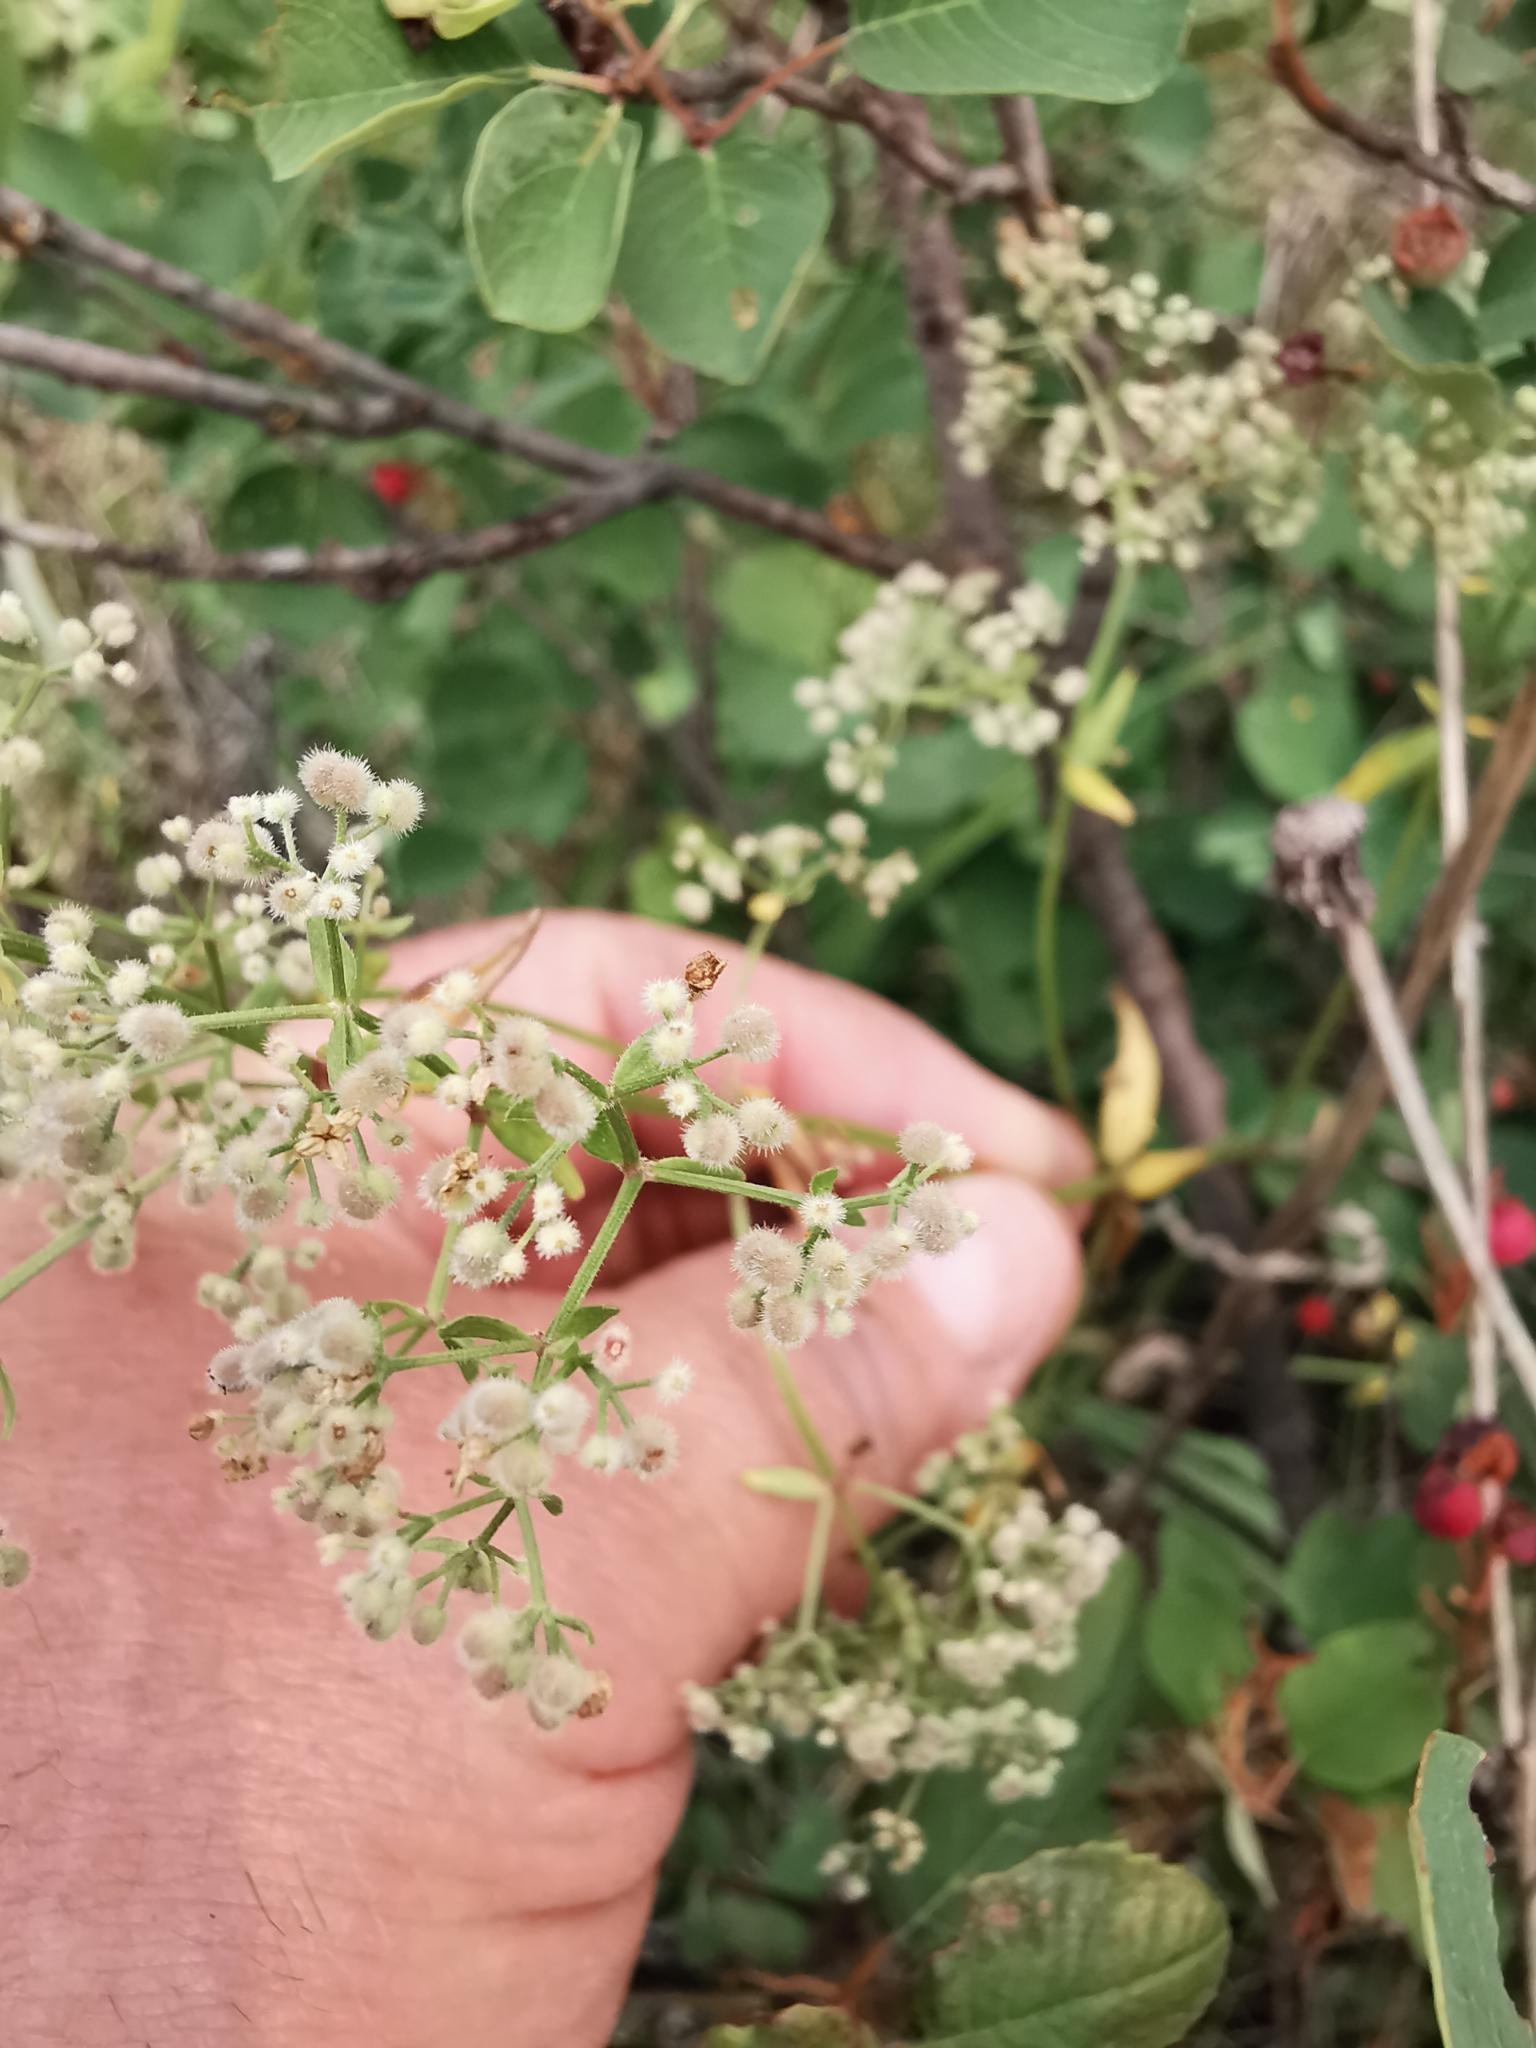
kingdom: Plantae
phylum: Tracheophyta
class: Magnoliopsida
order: Gentianales
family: Rubiaceae
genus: Galium
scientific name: Galium boreale
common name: Northern bedstraw
